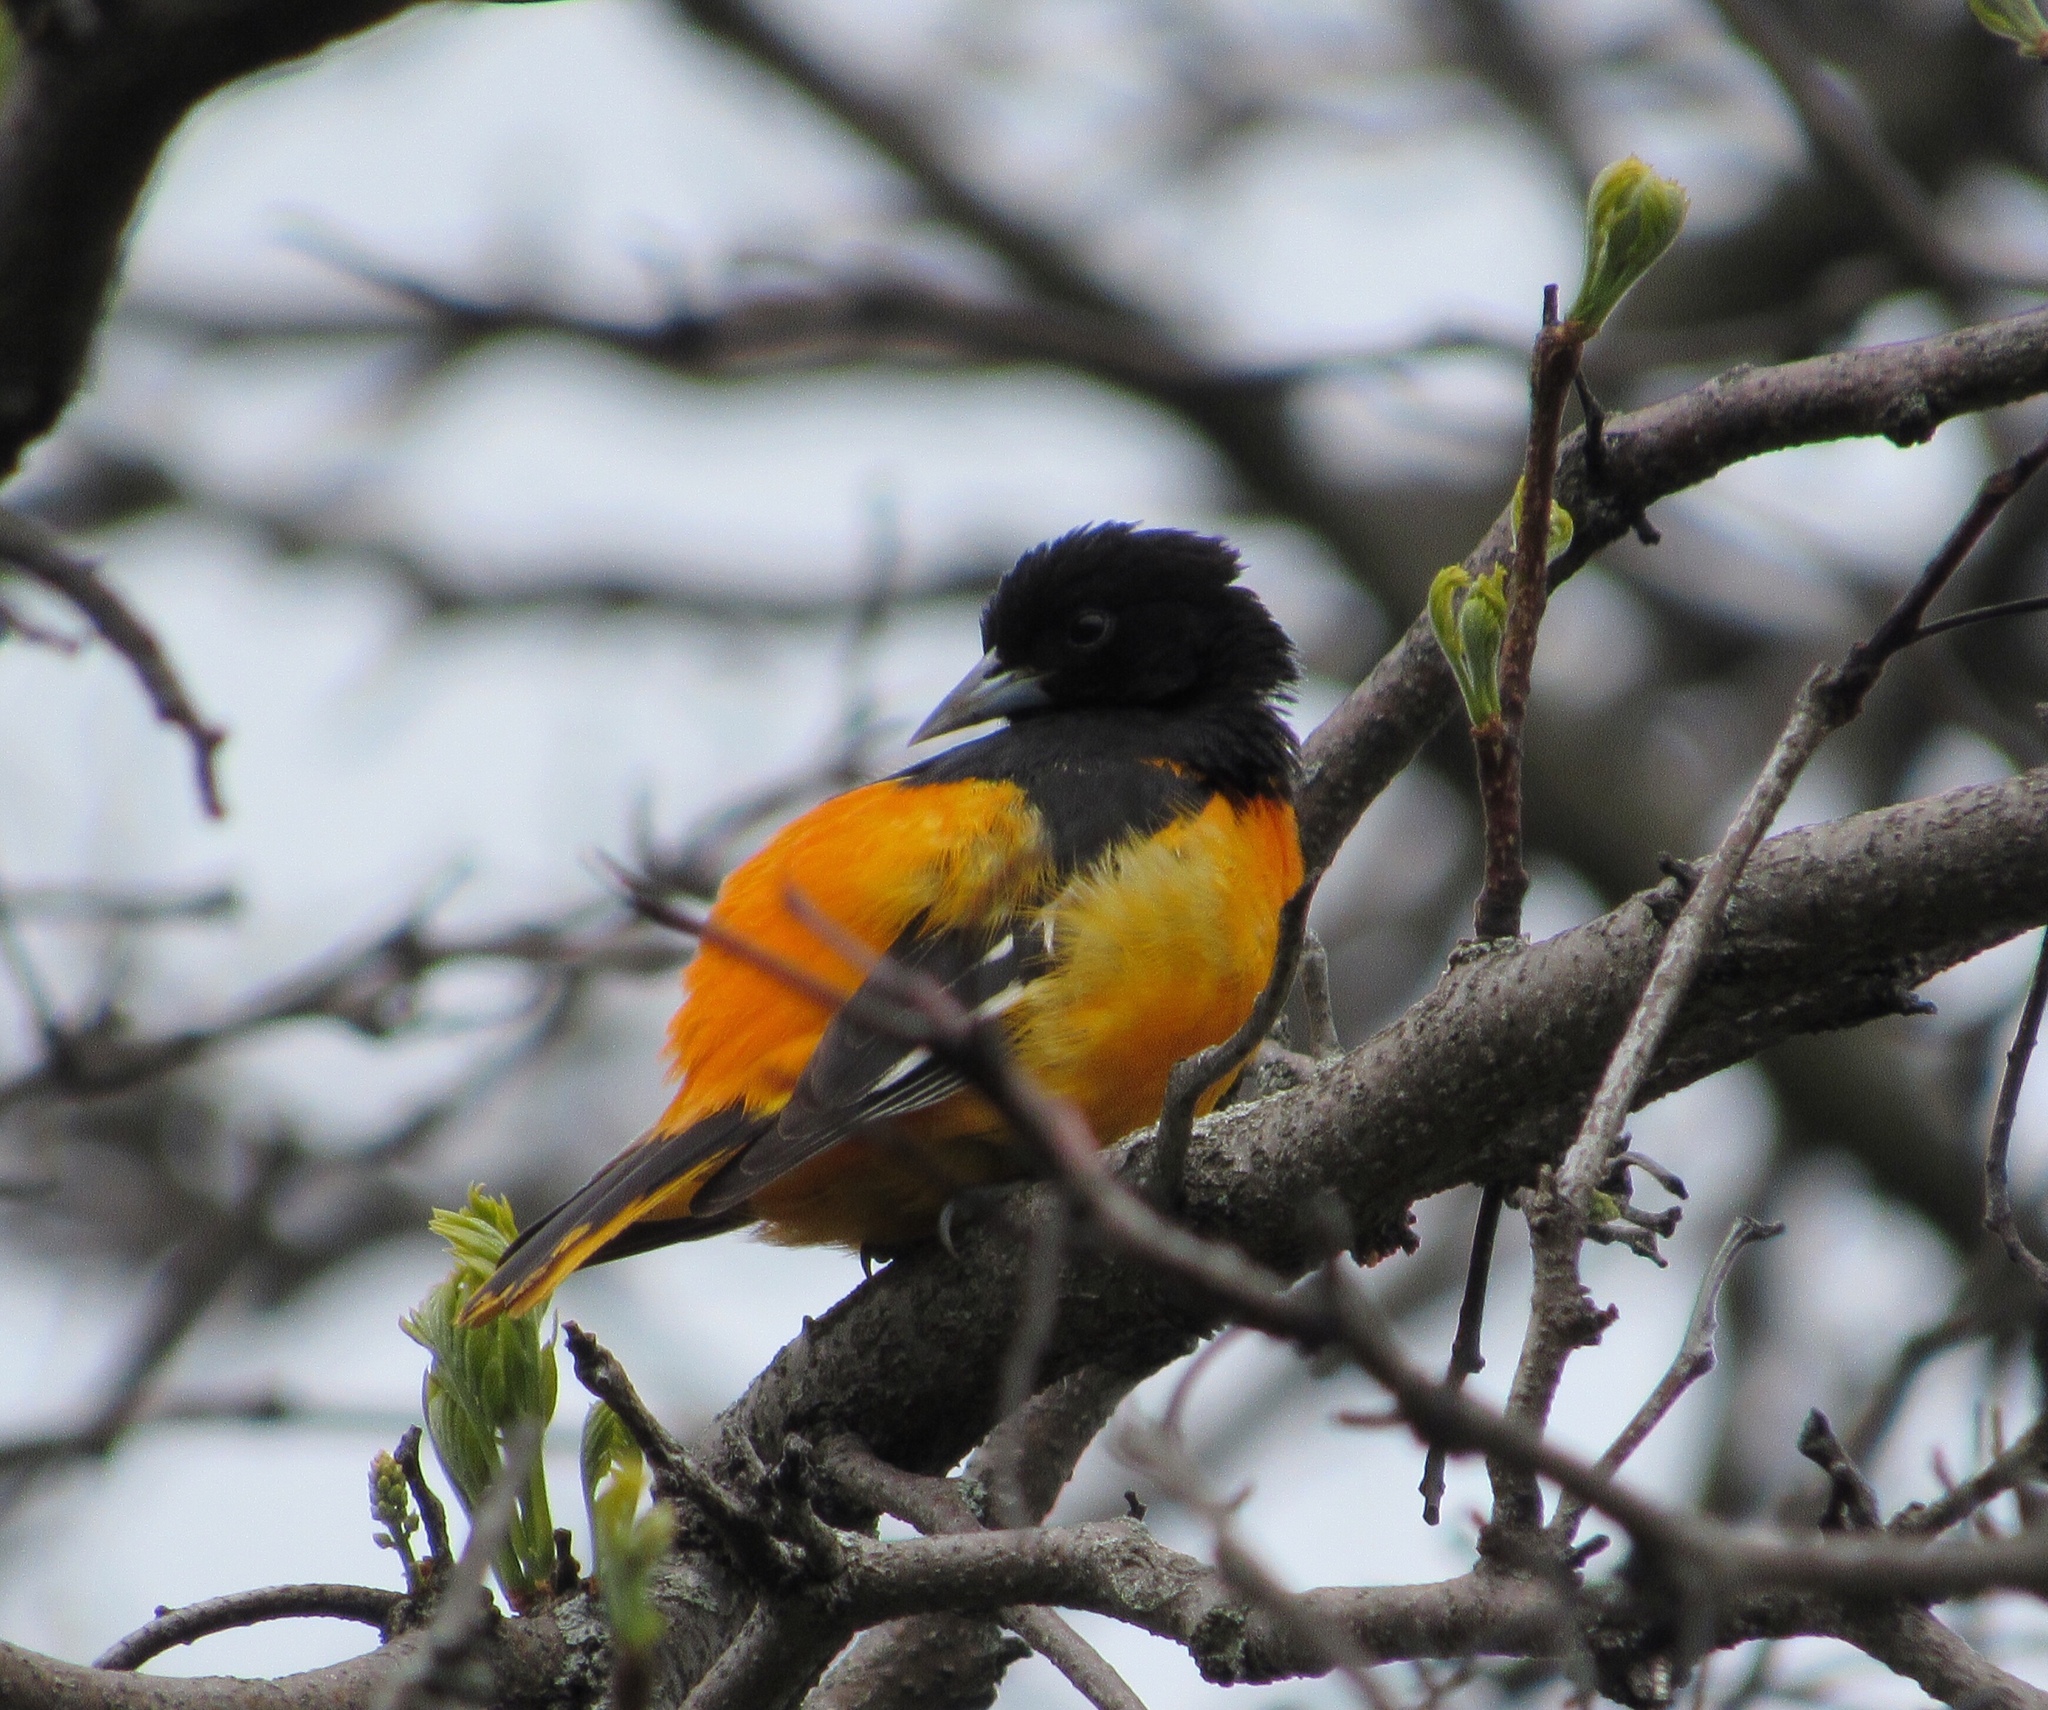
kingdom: Animalia
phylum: Chordata
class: Aves
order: Passeriformes
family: Icteridae
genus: Icterus
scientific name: Icterus galbula
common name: Baltimore oriole
